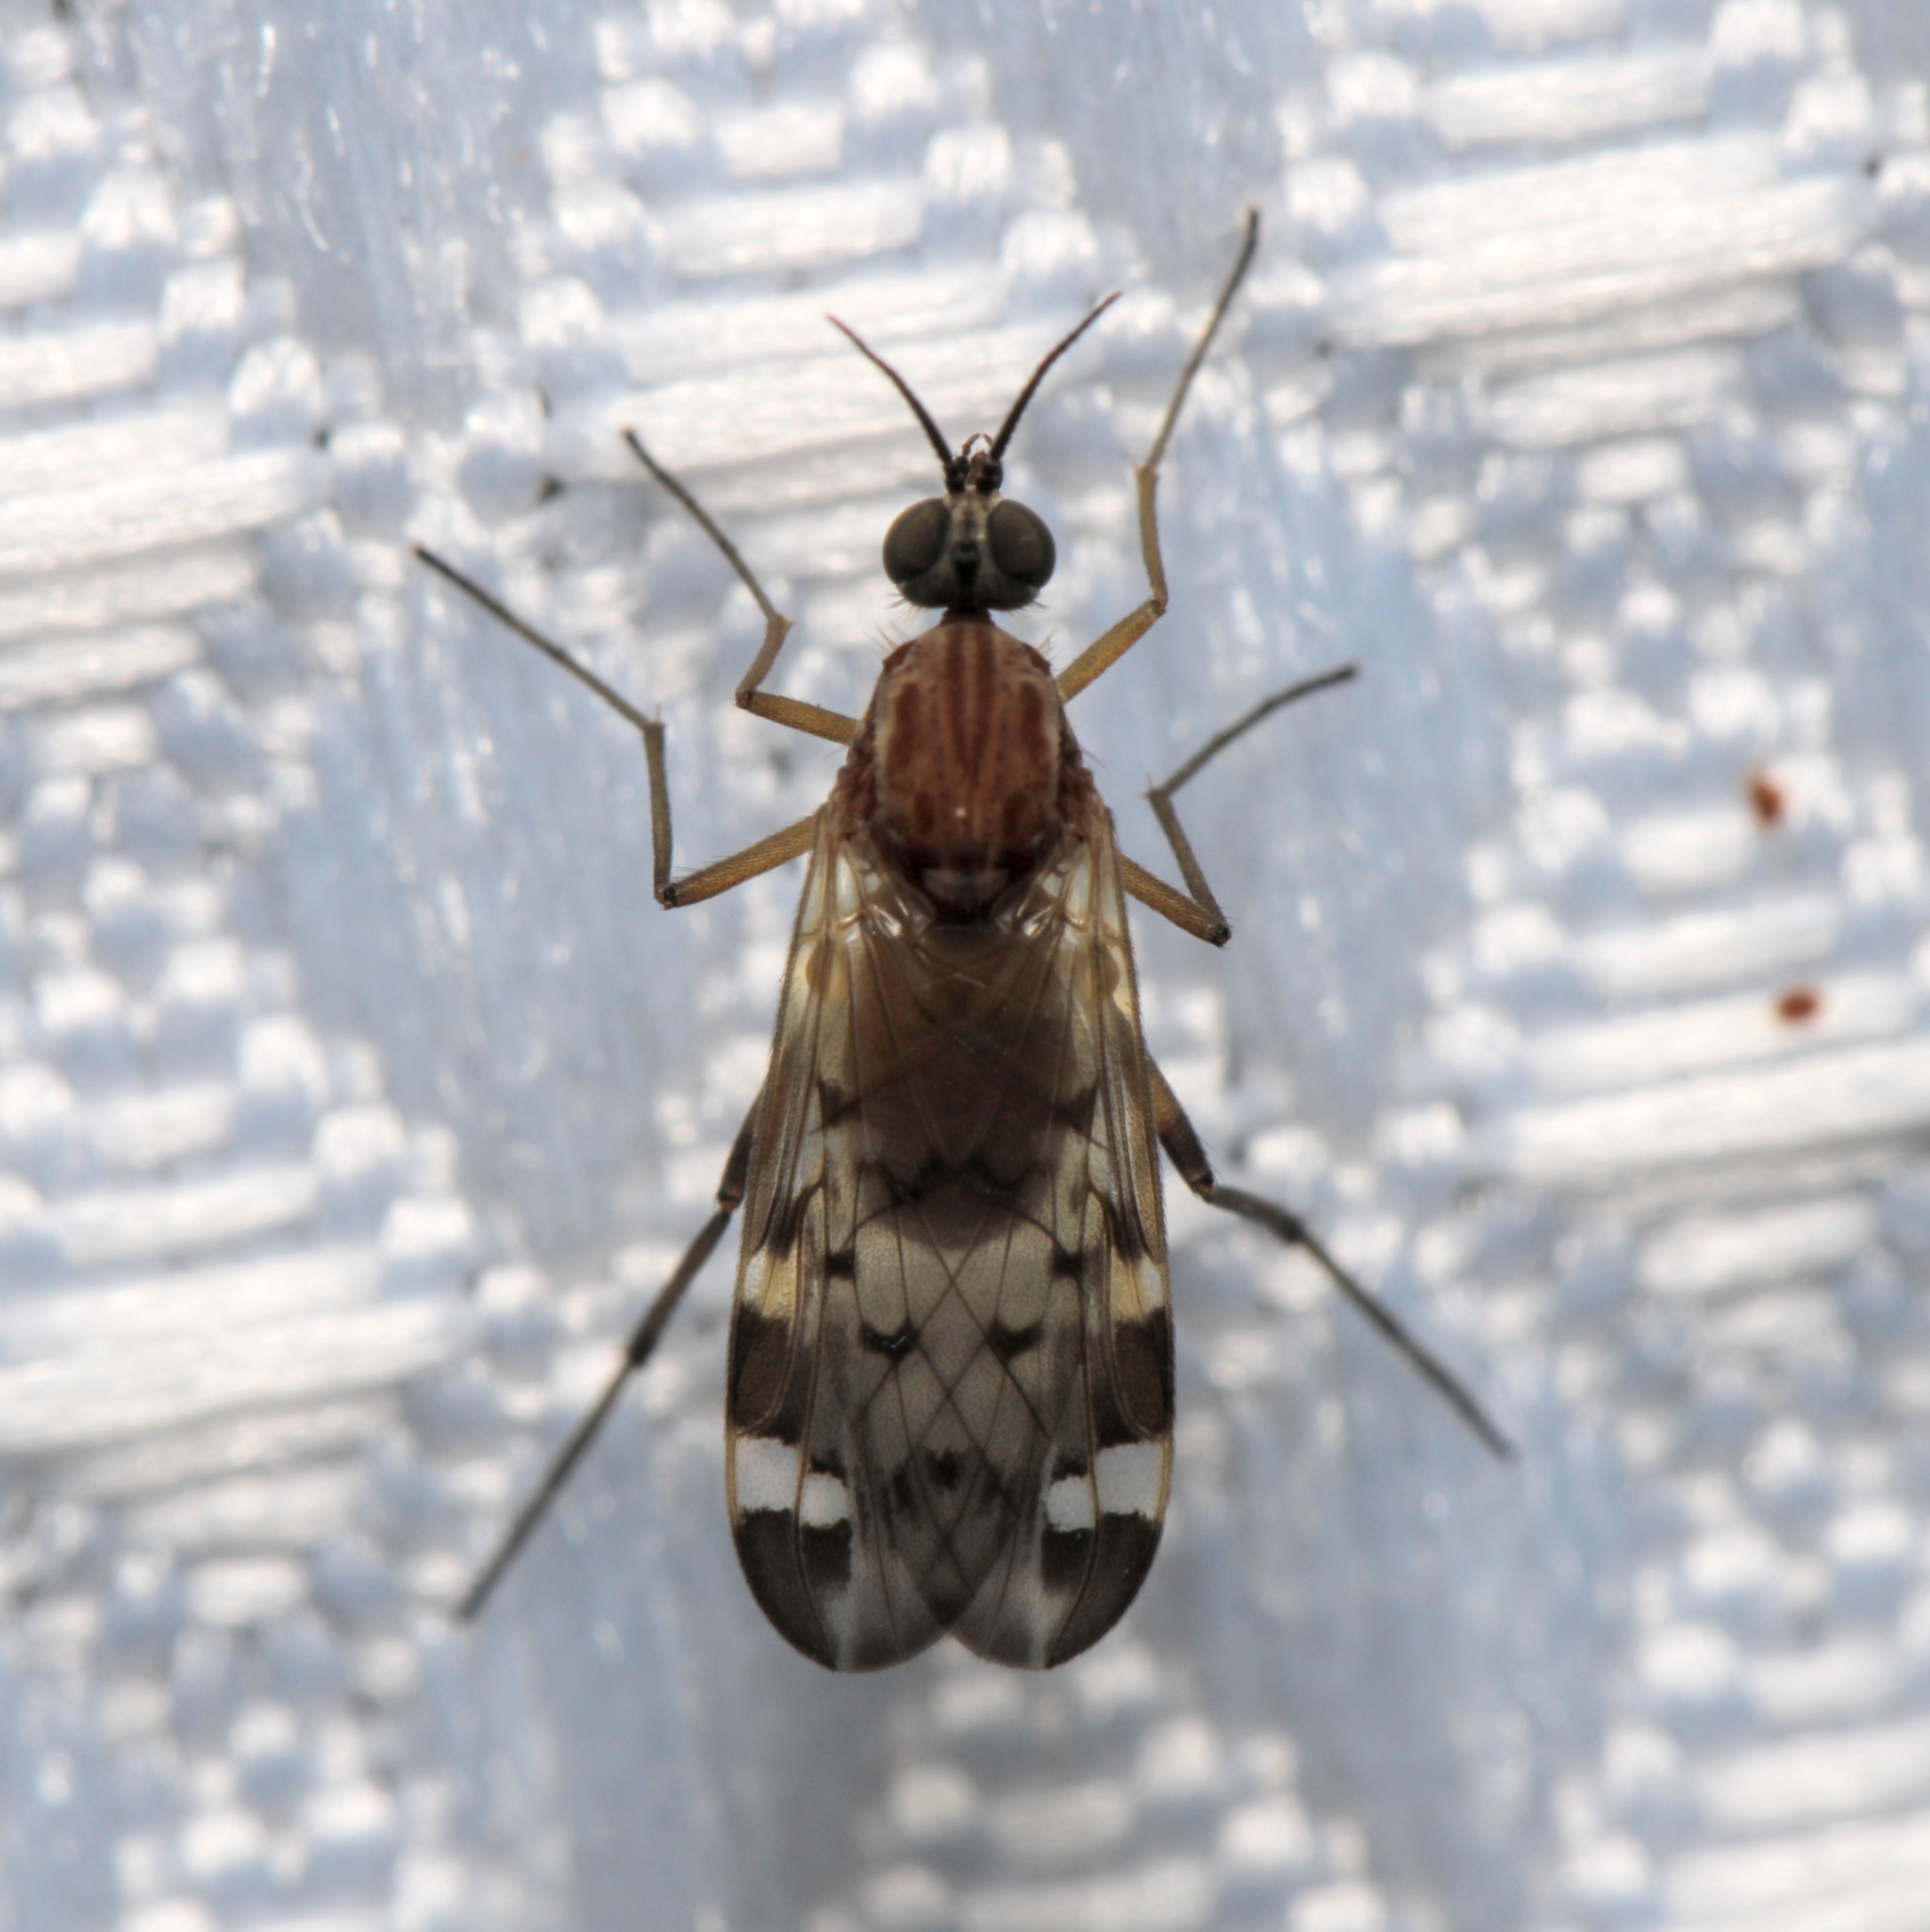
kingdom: Animalia
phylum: Arthropoda
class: Insecta
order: Diptera
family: Anisopodidae
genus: Sylvicola
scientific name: Sylvicola alternata
